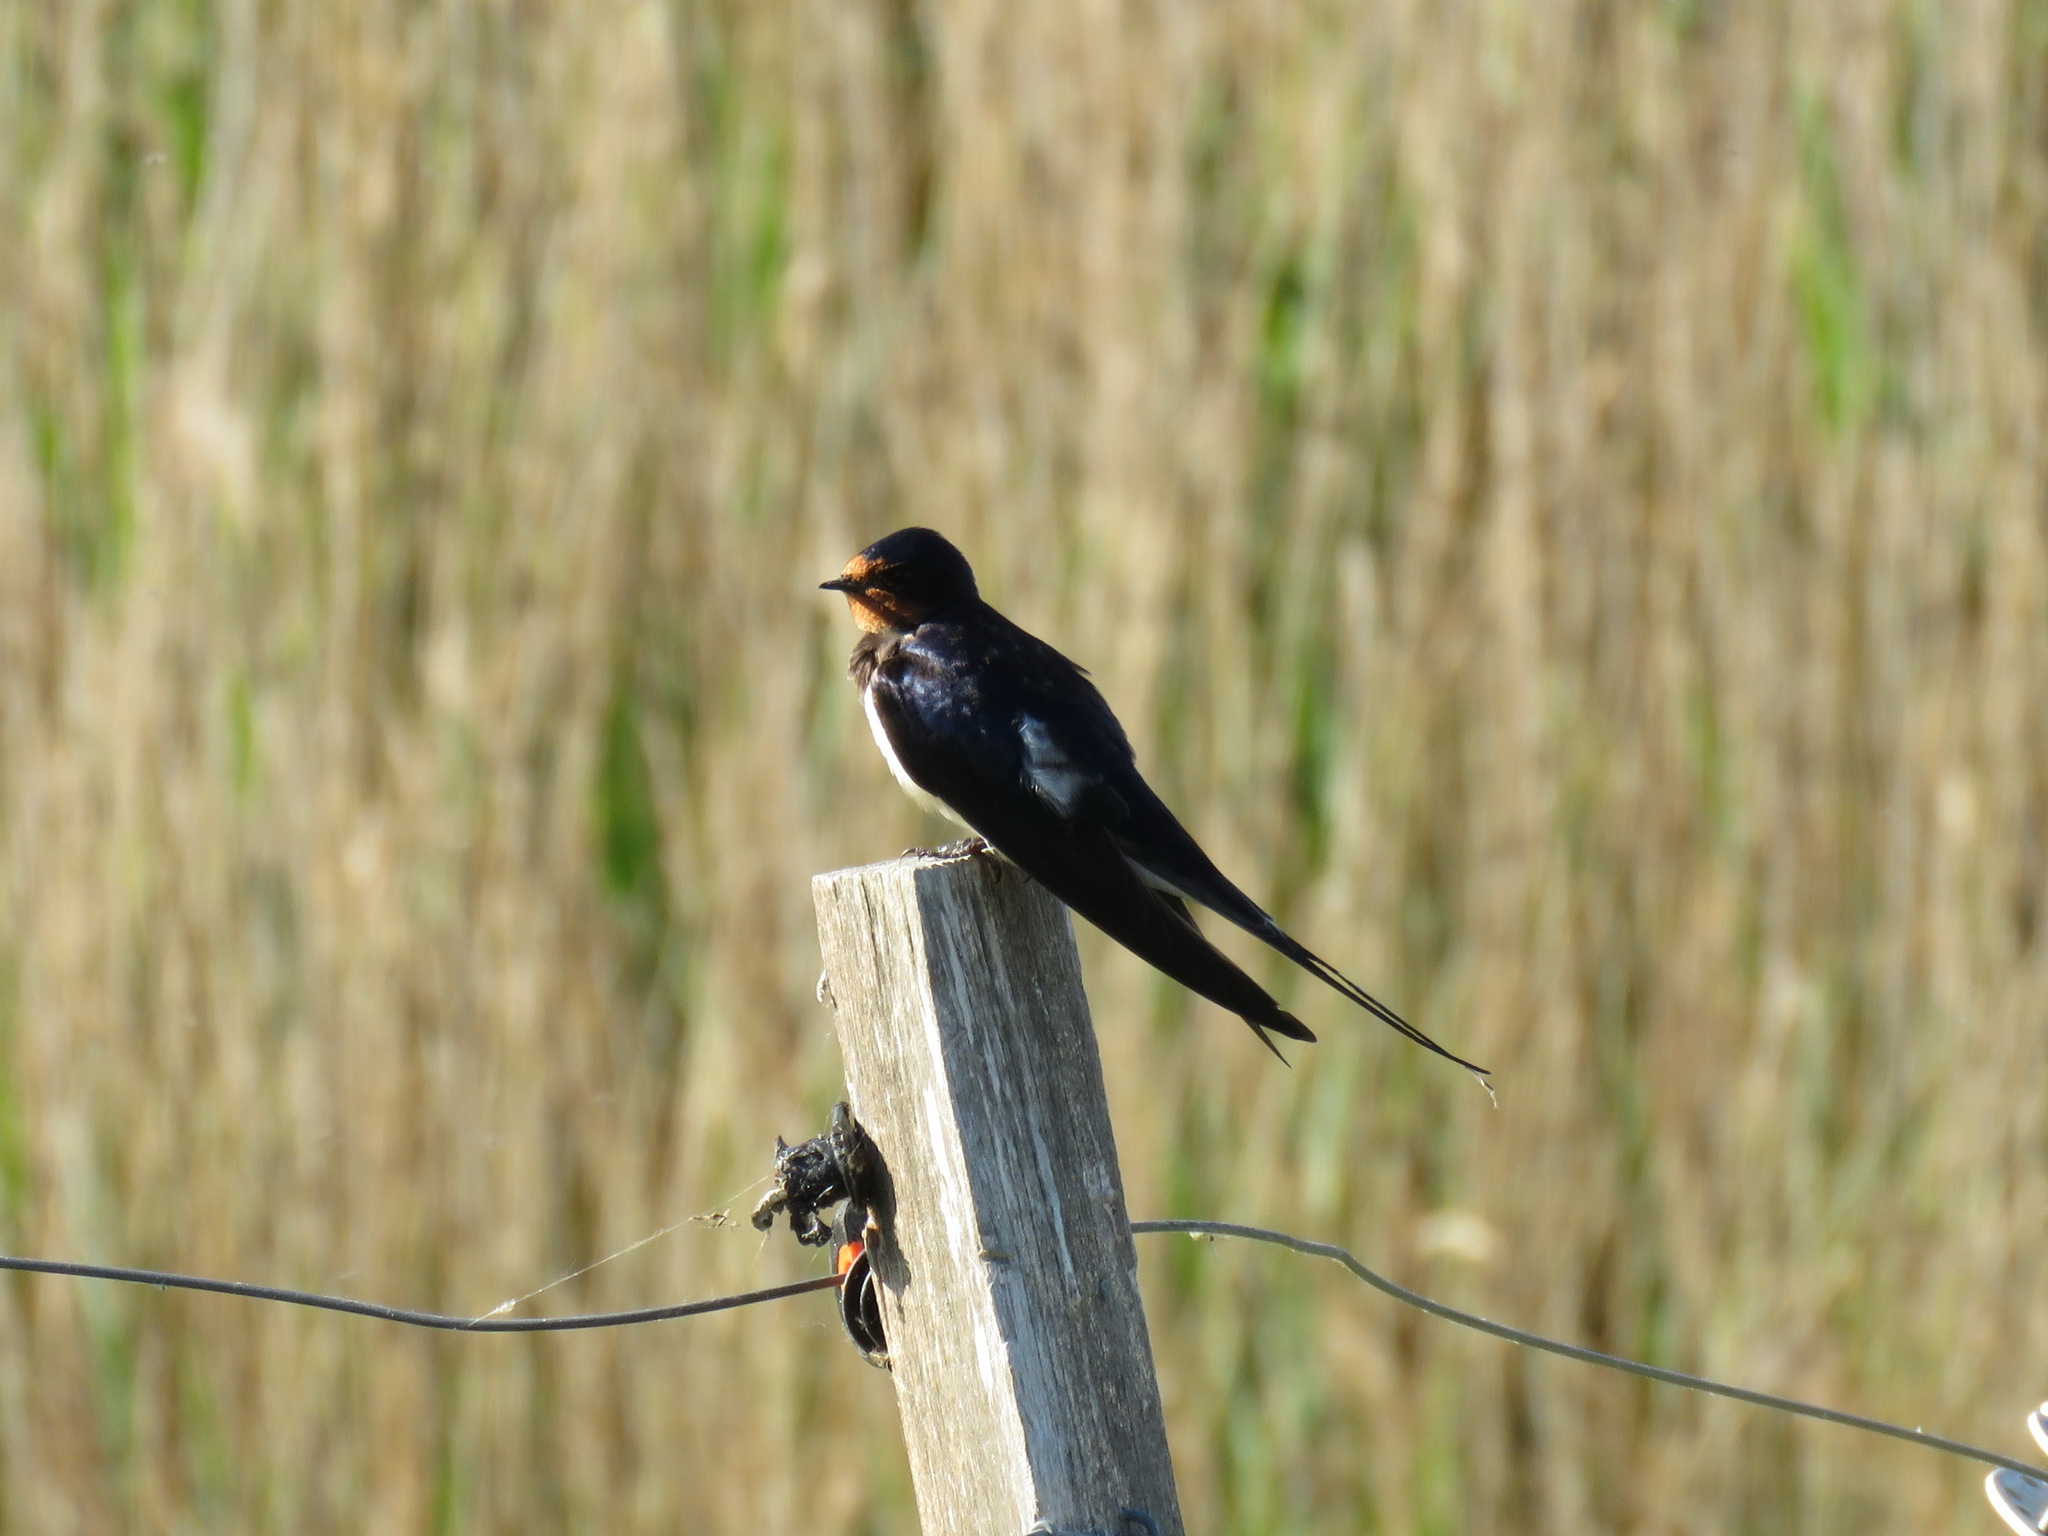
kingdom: Animalia
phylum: Chordata
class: Aves
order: Passeriformes
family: Hirundinidae
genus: Hirundo
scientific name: Hirundo rustica
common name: Barn swallow
